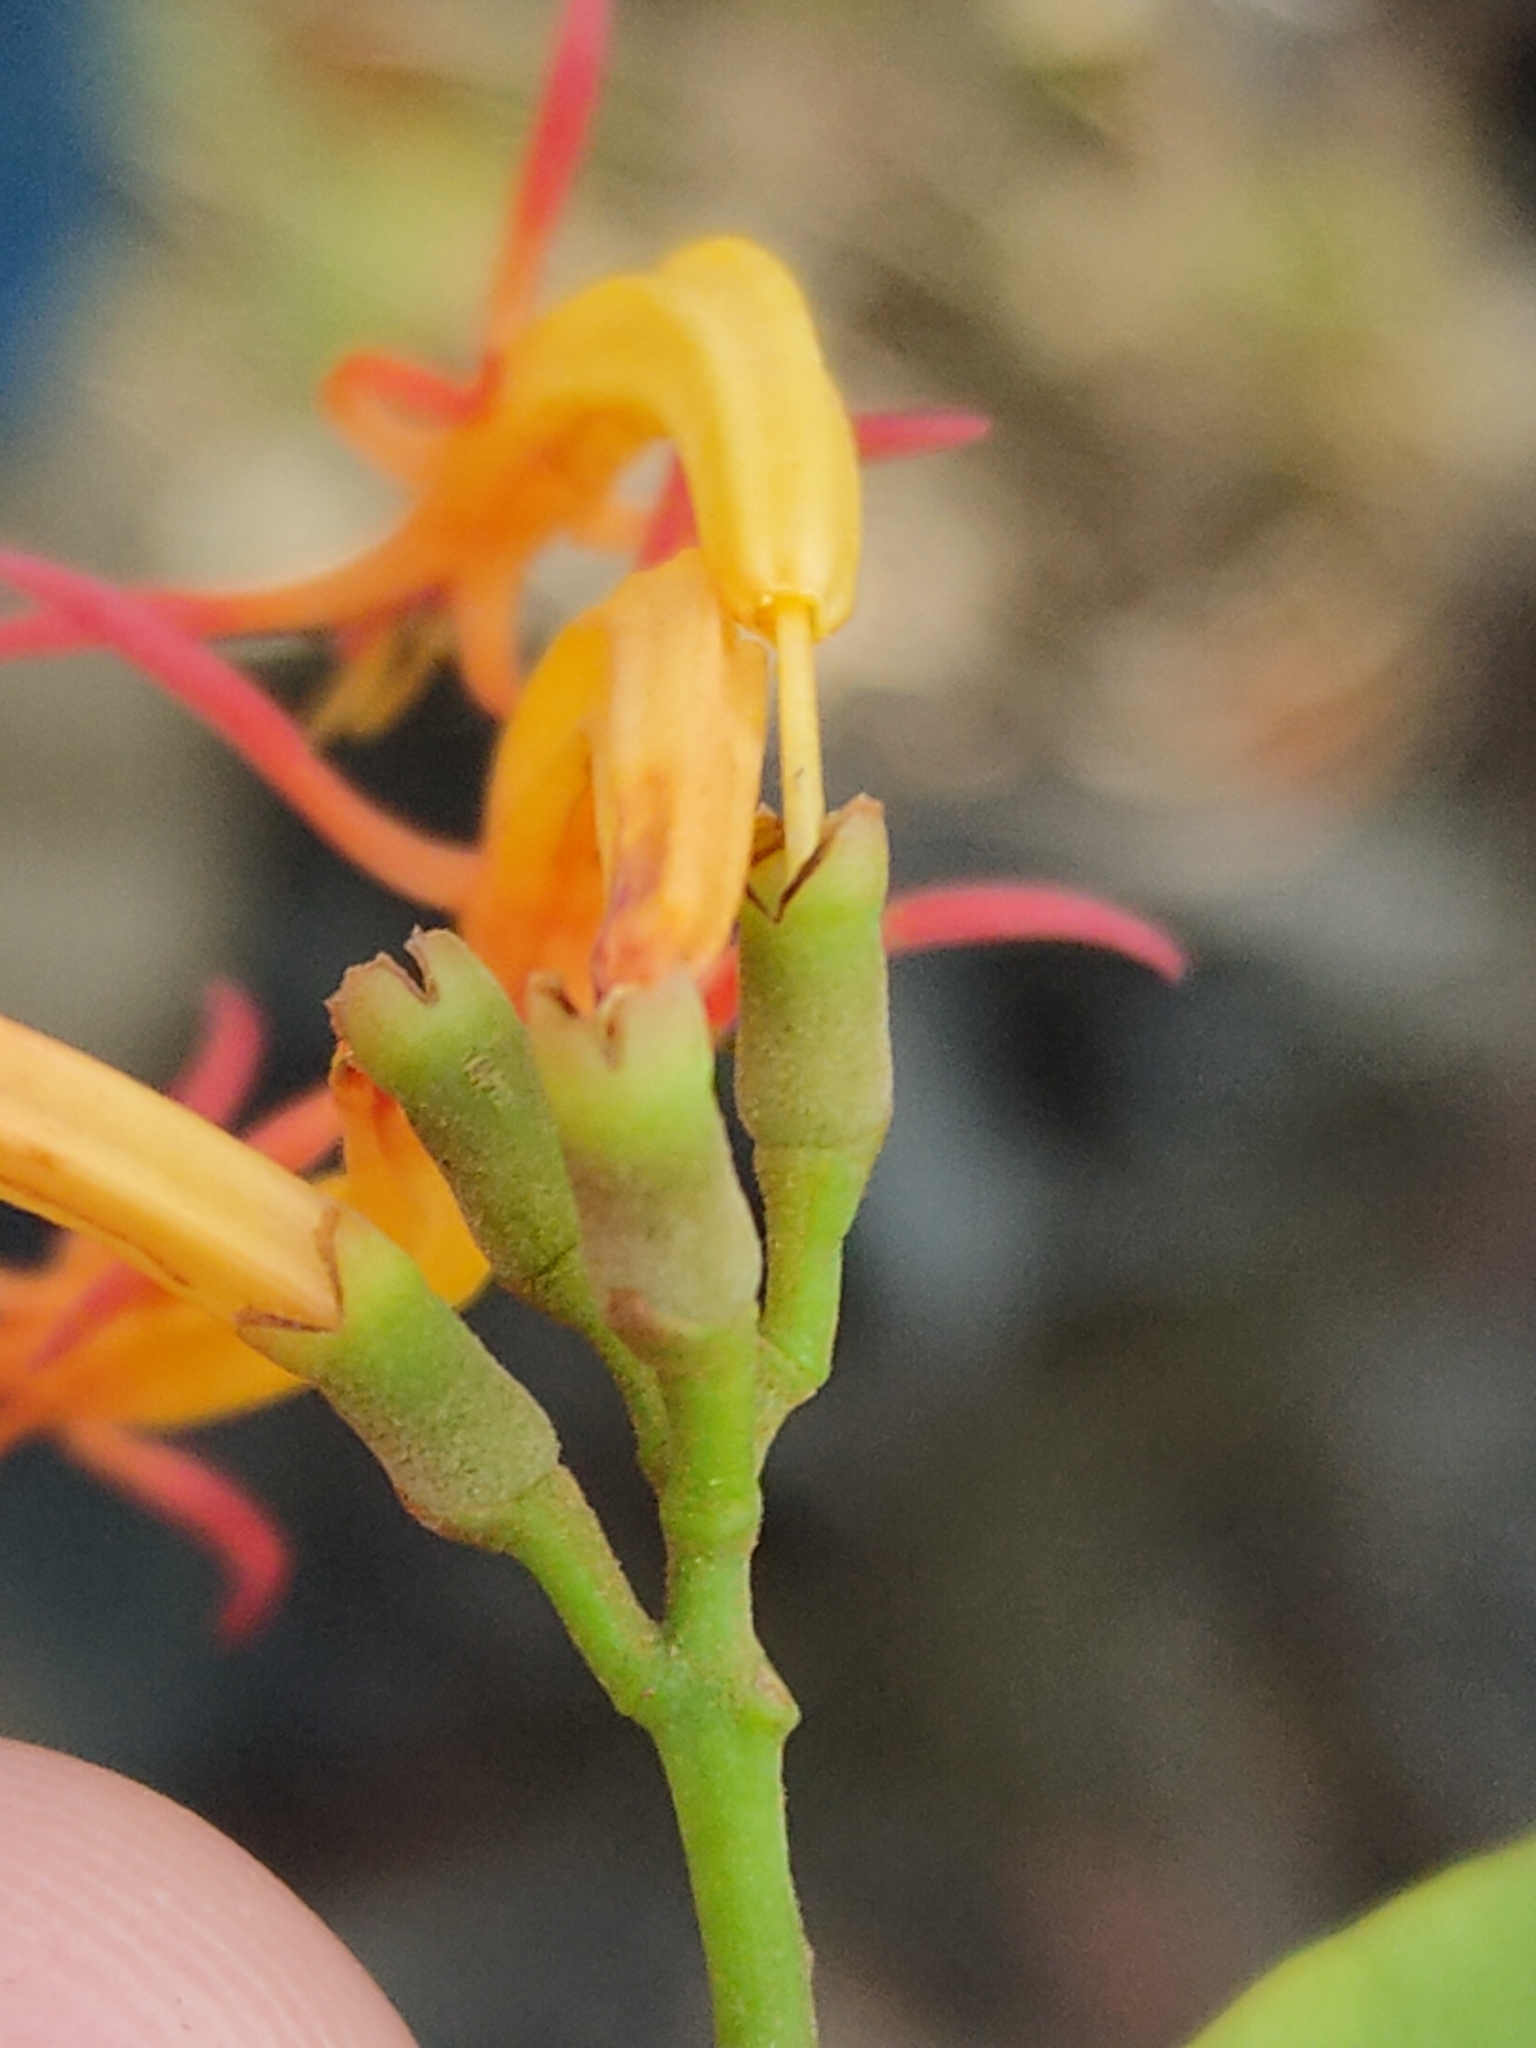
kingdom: Plantae
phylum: Tracheophyta
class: Magnoliopsida
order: Santalales
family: Loranthaceae
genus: Dendrophthoe
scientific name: Dendrophthoe vitellina
